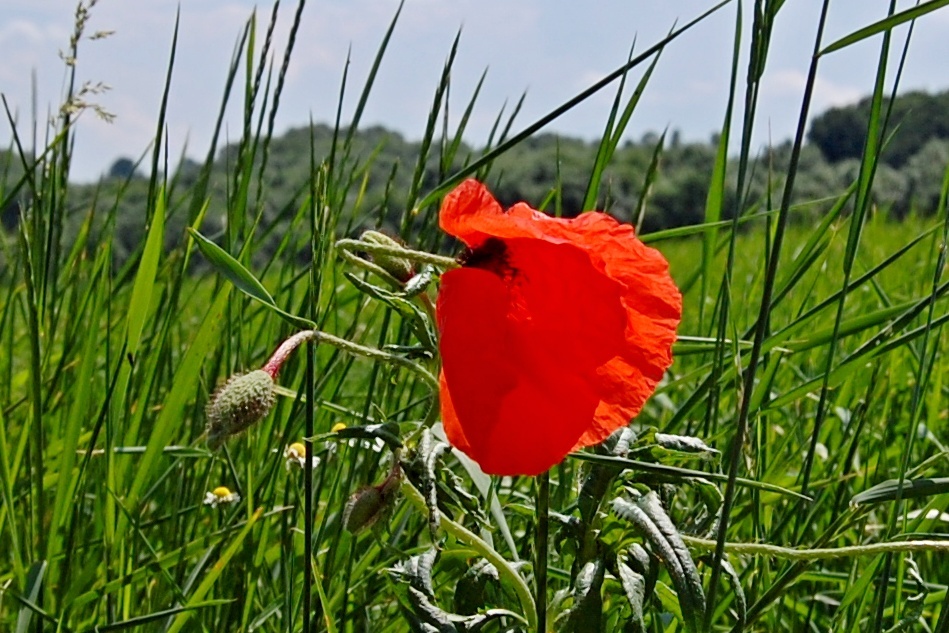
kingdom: Plantae
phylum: Tracheophyta
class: Magnoliopsida
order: Ranunculales
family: Papaveraceae
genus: Papaver
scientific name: Papaver rhoeas
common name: Corn poppy
